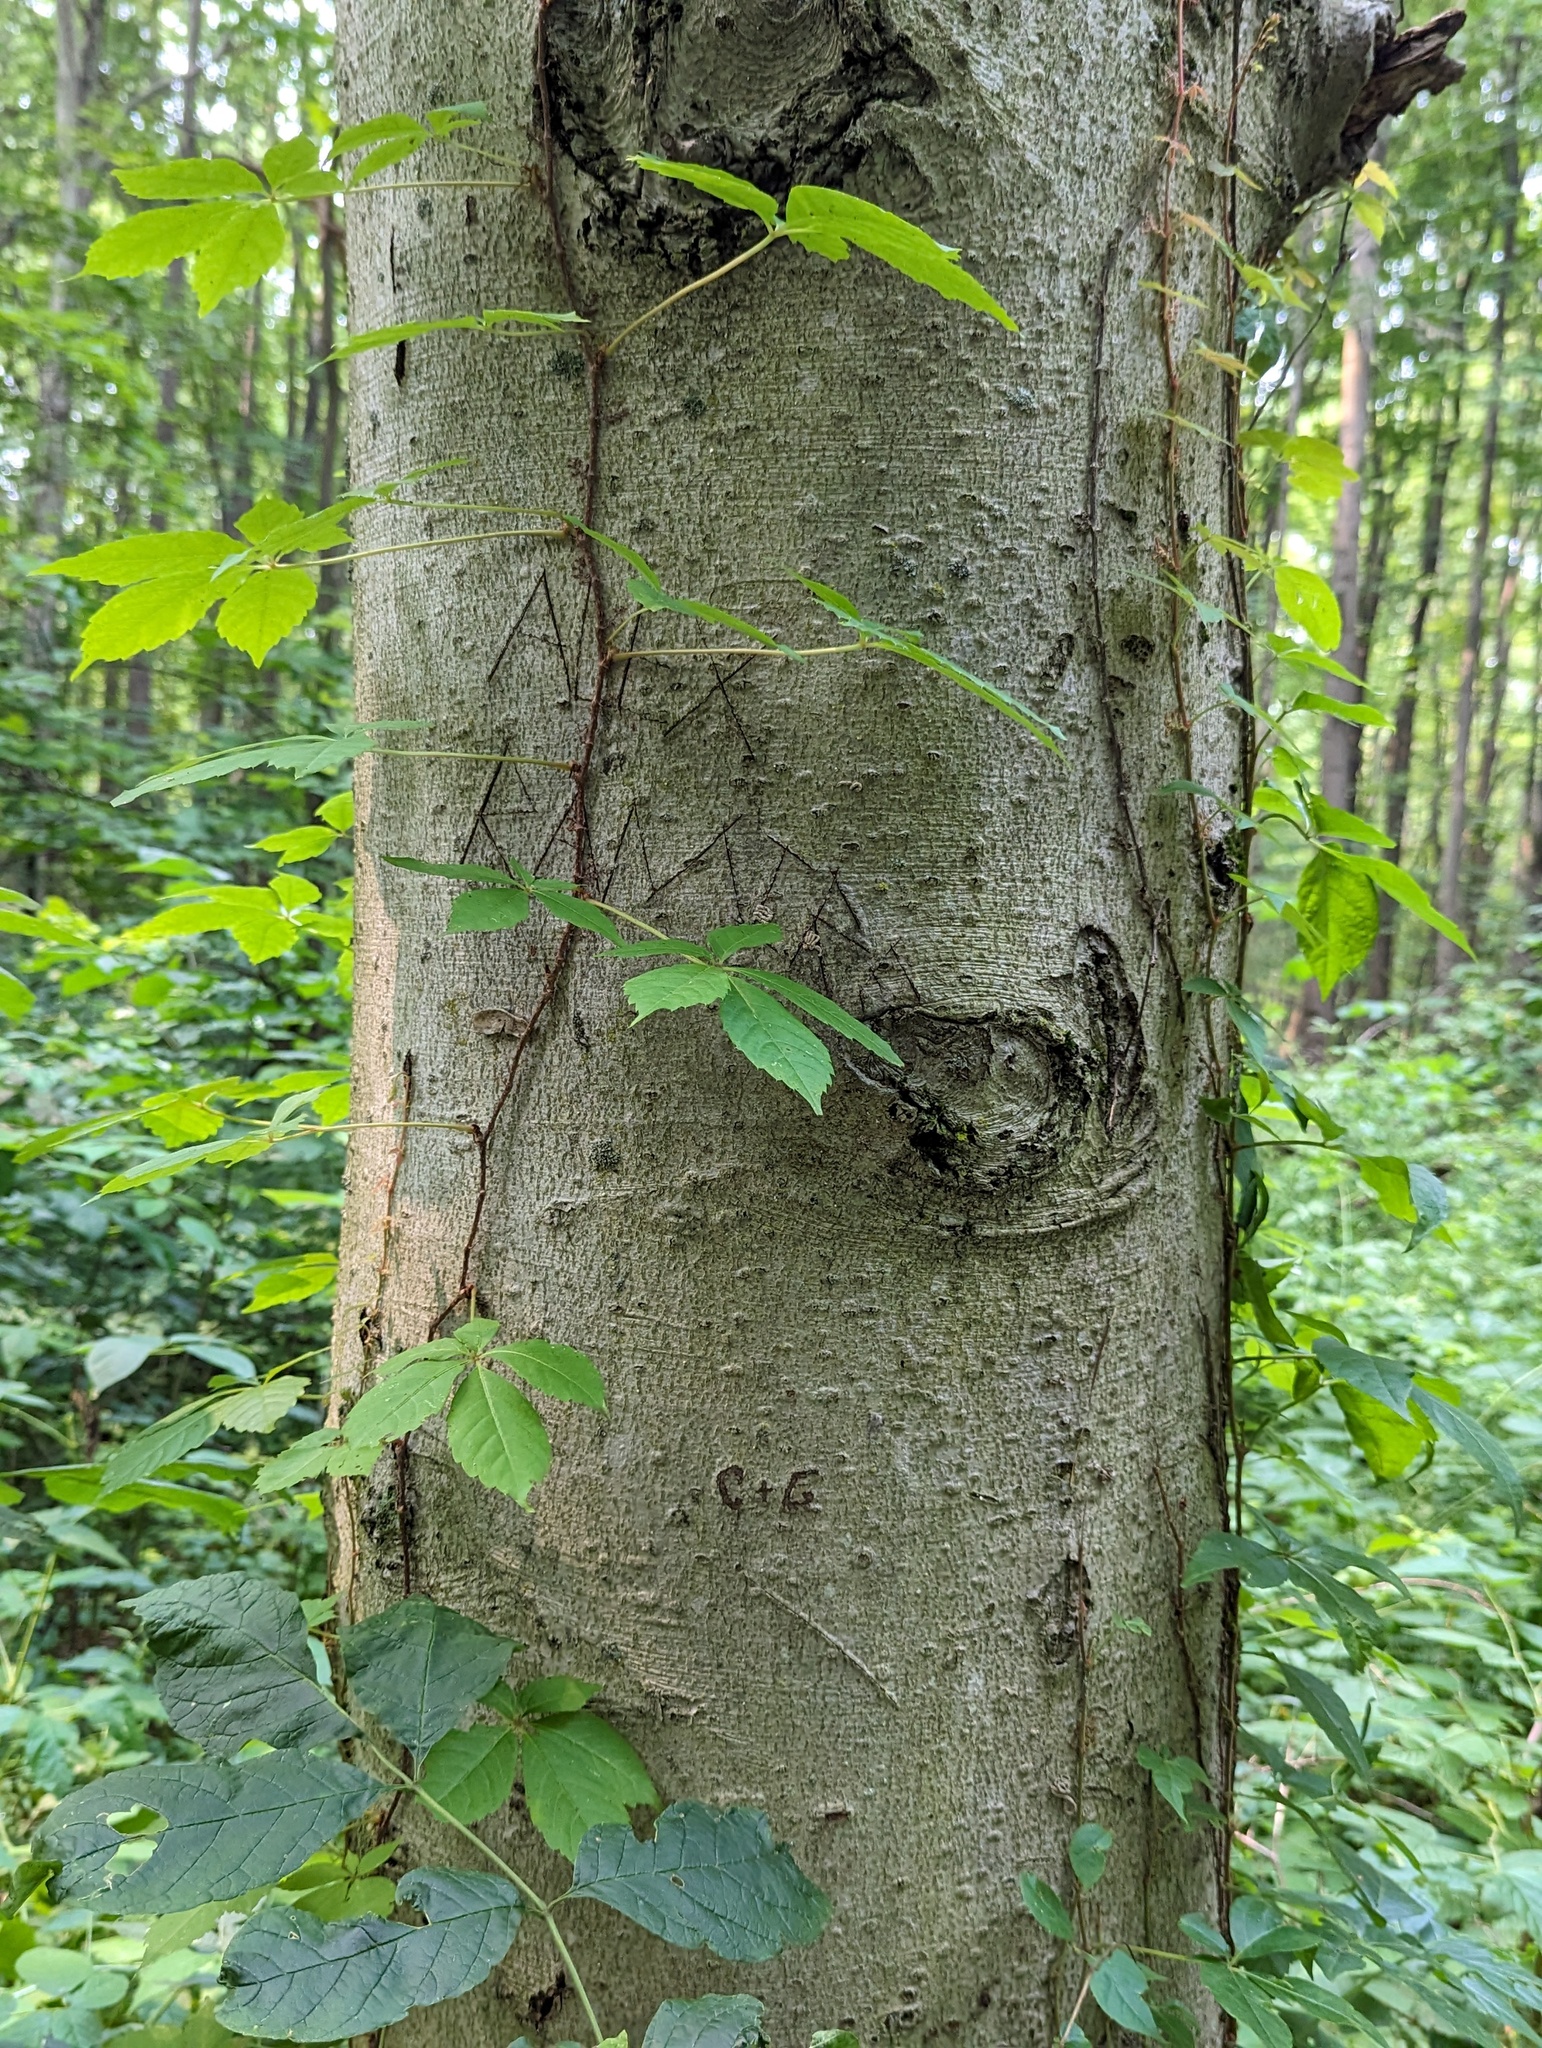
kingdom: Plantae
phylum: Tracheophyta
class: Magnoliopsida
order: Fagales
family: Fagaceae
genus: Fagus
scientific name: Fagus grandifolia
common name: American beech
